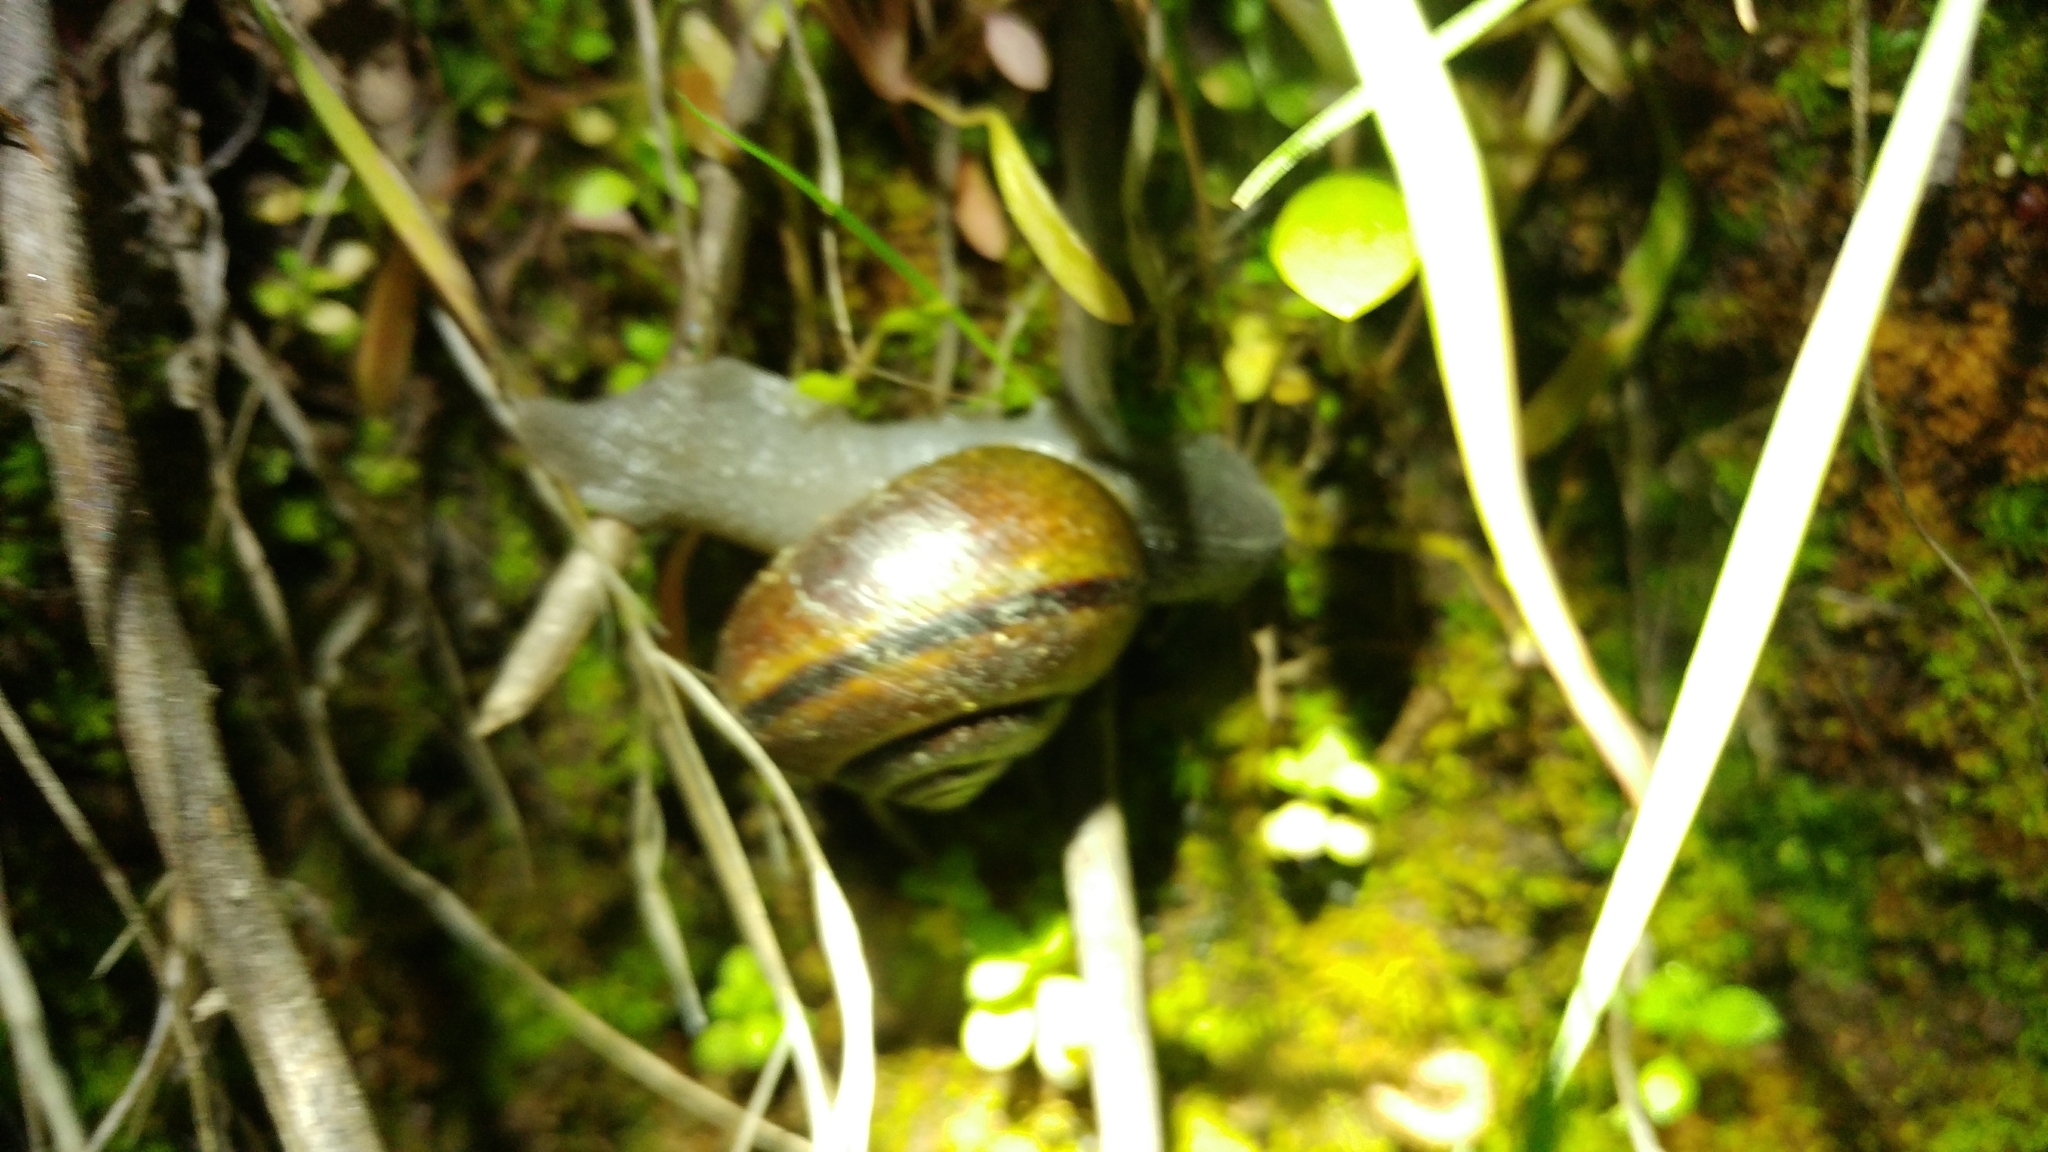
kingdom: Animalia
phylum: Mollusca
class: Gastropoda
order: Stylommatophora
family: Xanthonychidae
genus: Helminthoglypta
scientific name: Helminthoglypta tudiculata
